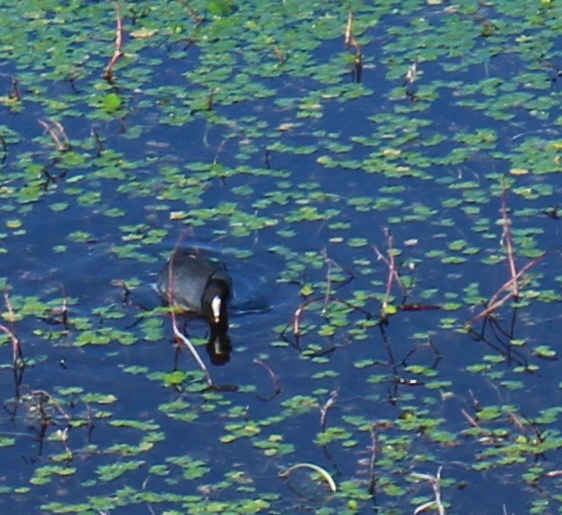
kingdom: Animalia
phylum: Chordata
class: Aves
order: Gruiformes
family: Rallidae
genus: Fulica
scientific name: Fulica americana
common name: American coot
